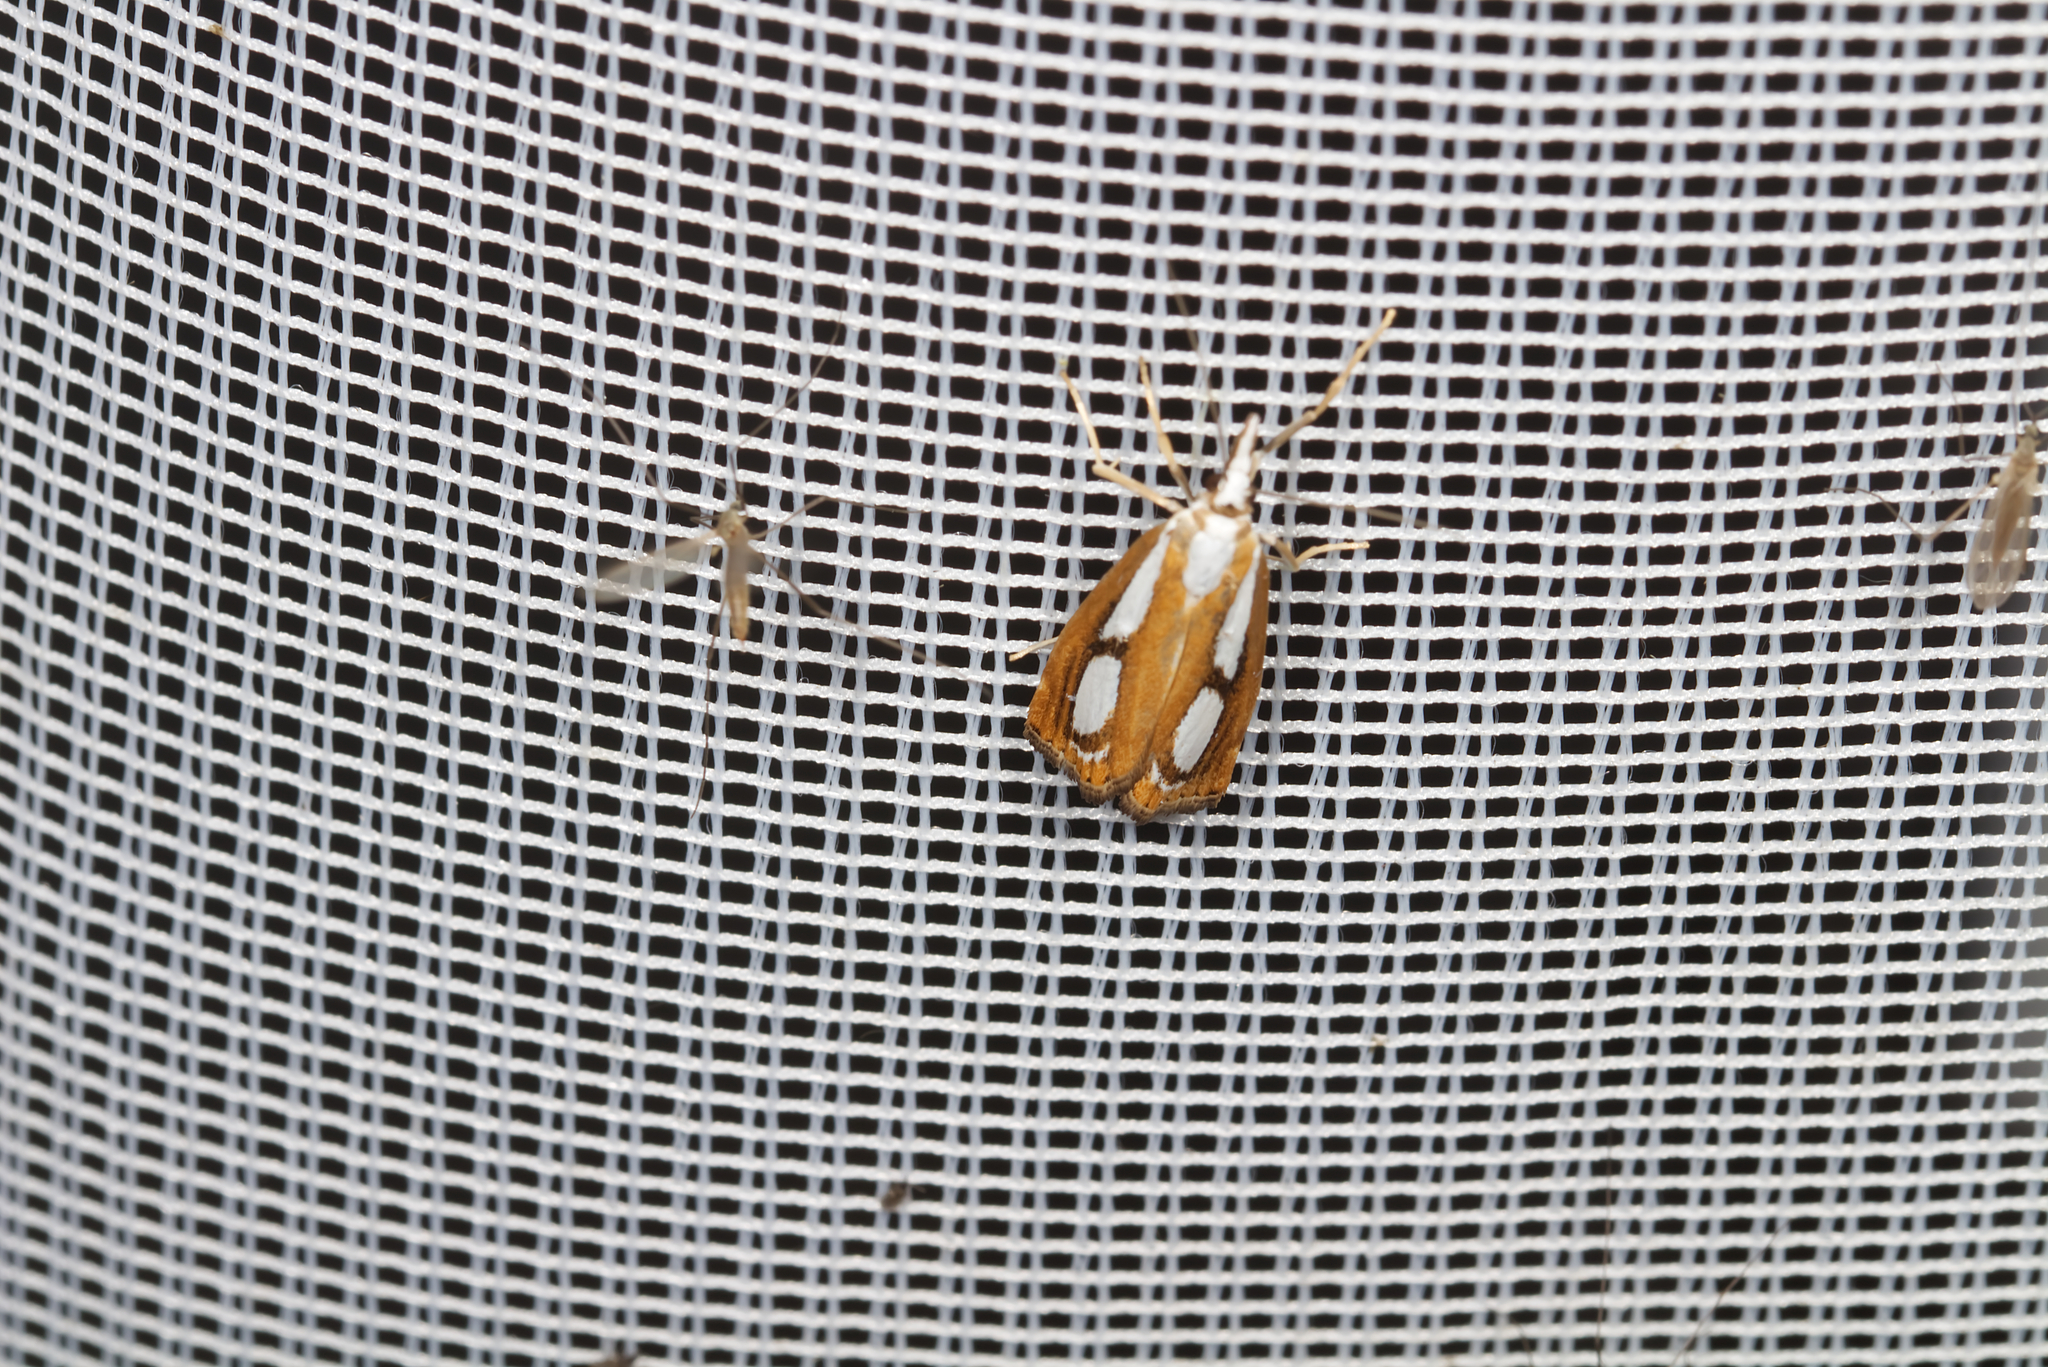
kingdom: Animalia
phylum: Arthropoda
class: Insecta
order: Lepidoptera
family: Crambidae
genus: Catoptria
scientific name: Catoptria
